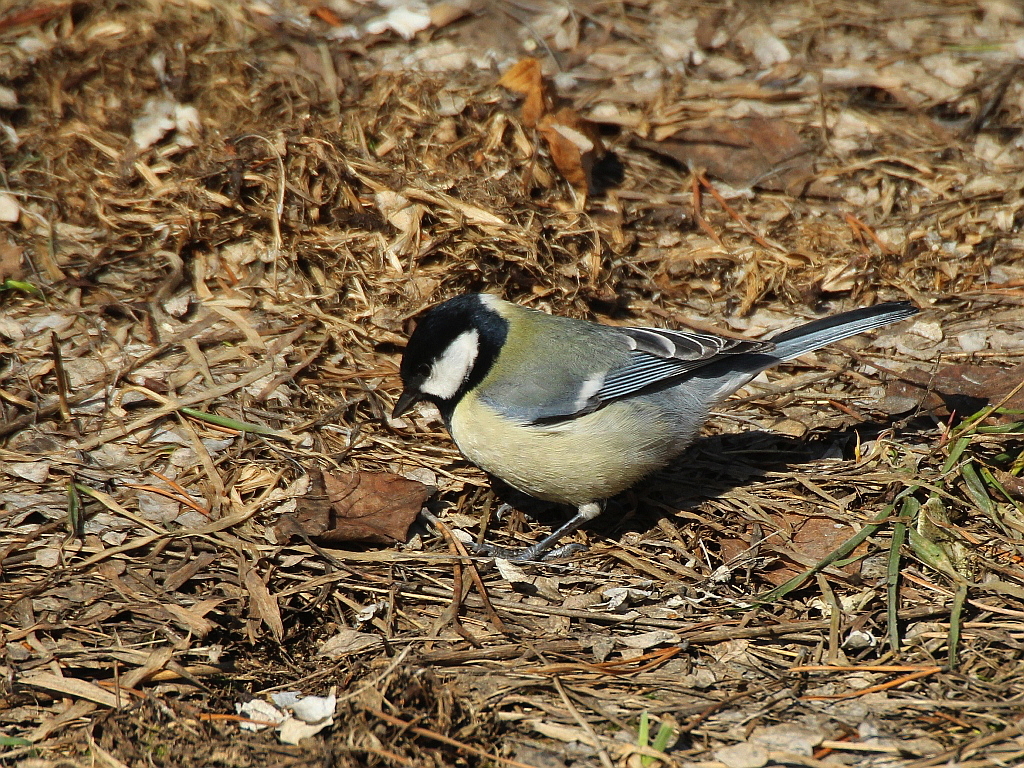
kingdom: Animalia
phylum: Chordata
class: Aves
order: Passeriformes
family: Paridae
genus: Parus
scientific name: Parus major
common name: Great tit
